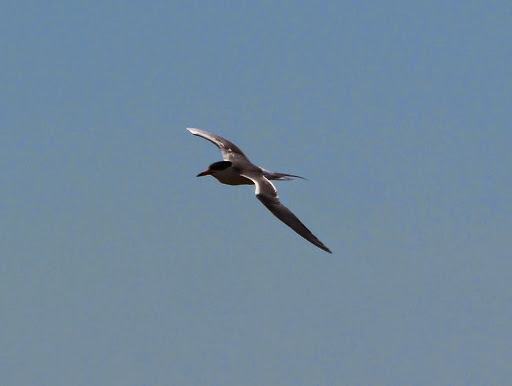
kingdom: Animalia
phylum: Chordata
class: Aves
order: Charadriiformes
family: Laridae
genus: Sterna
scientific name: Sterna forsteri
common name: Forster's tern
